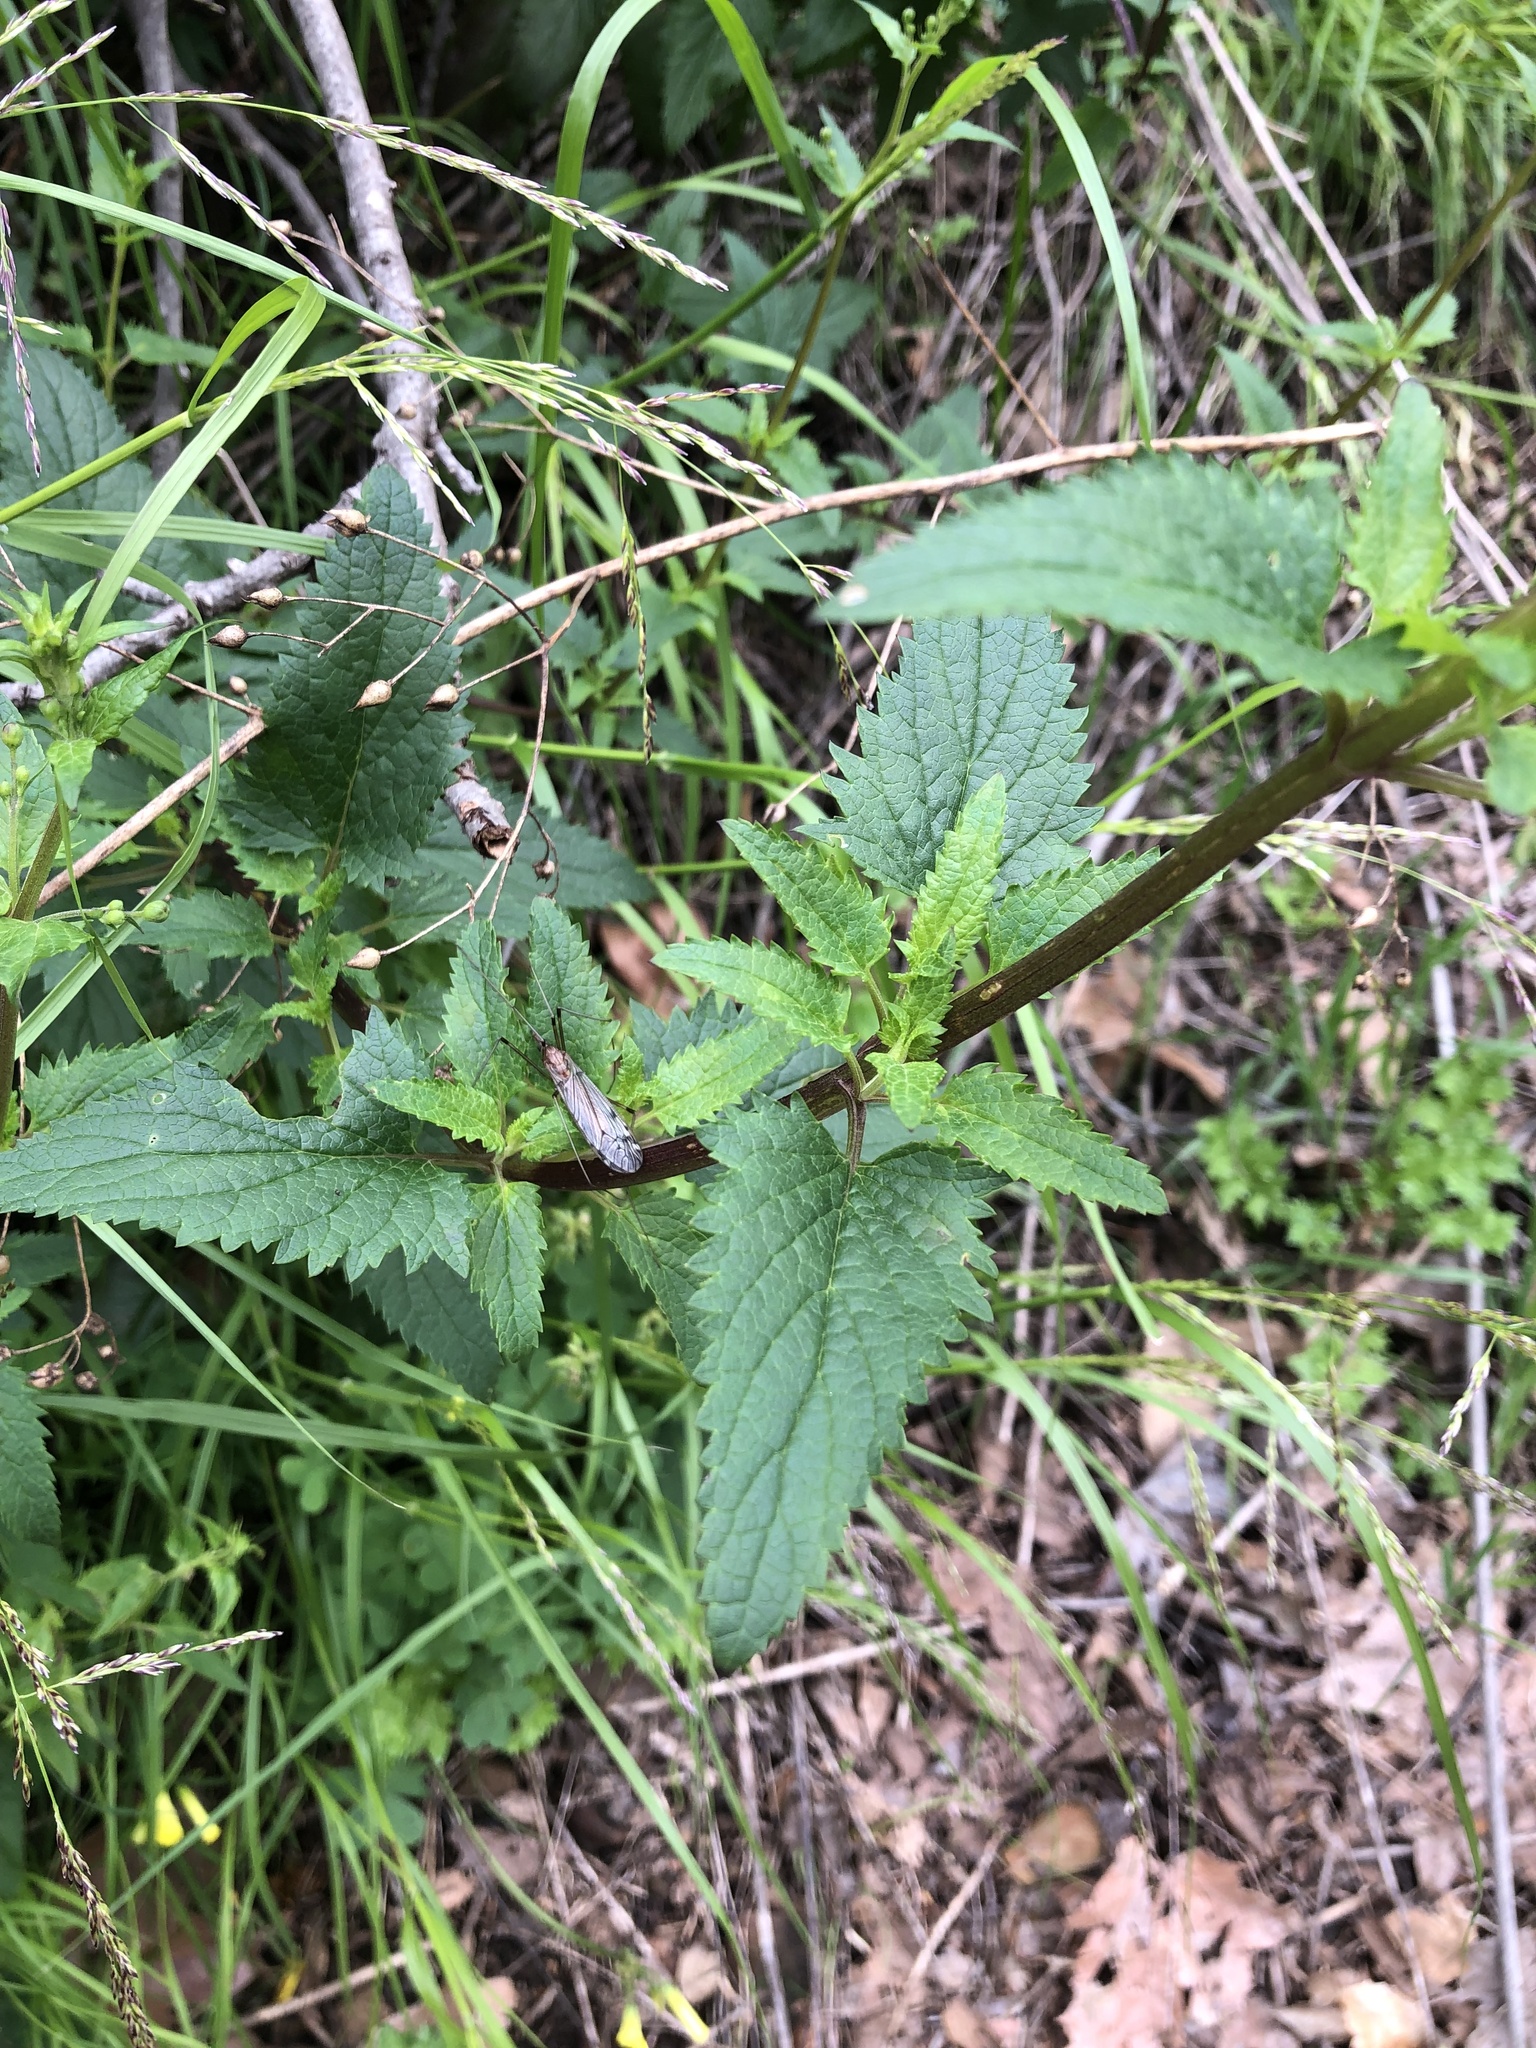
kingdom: Plantae
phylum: Tracheophyta
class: Magnoliopsida
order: Lamiales
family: Scrophulariaceae
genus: Scrophularia
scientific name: Scrophularia californica
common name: California figwort
